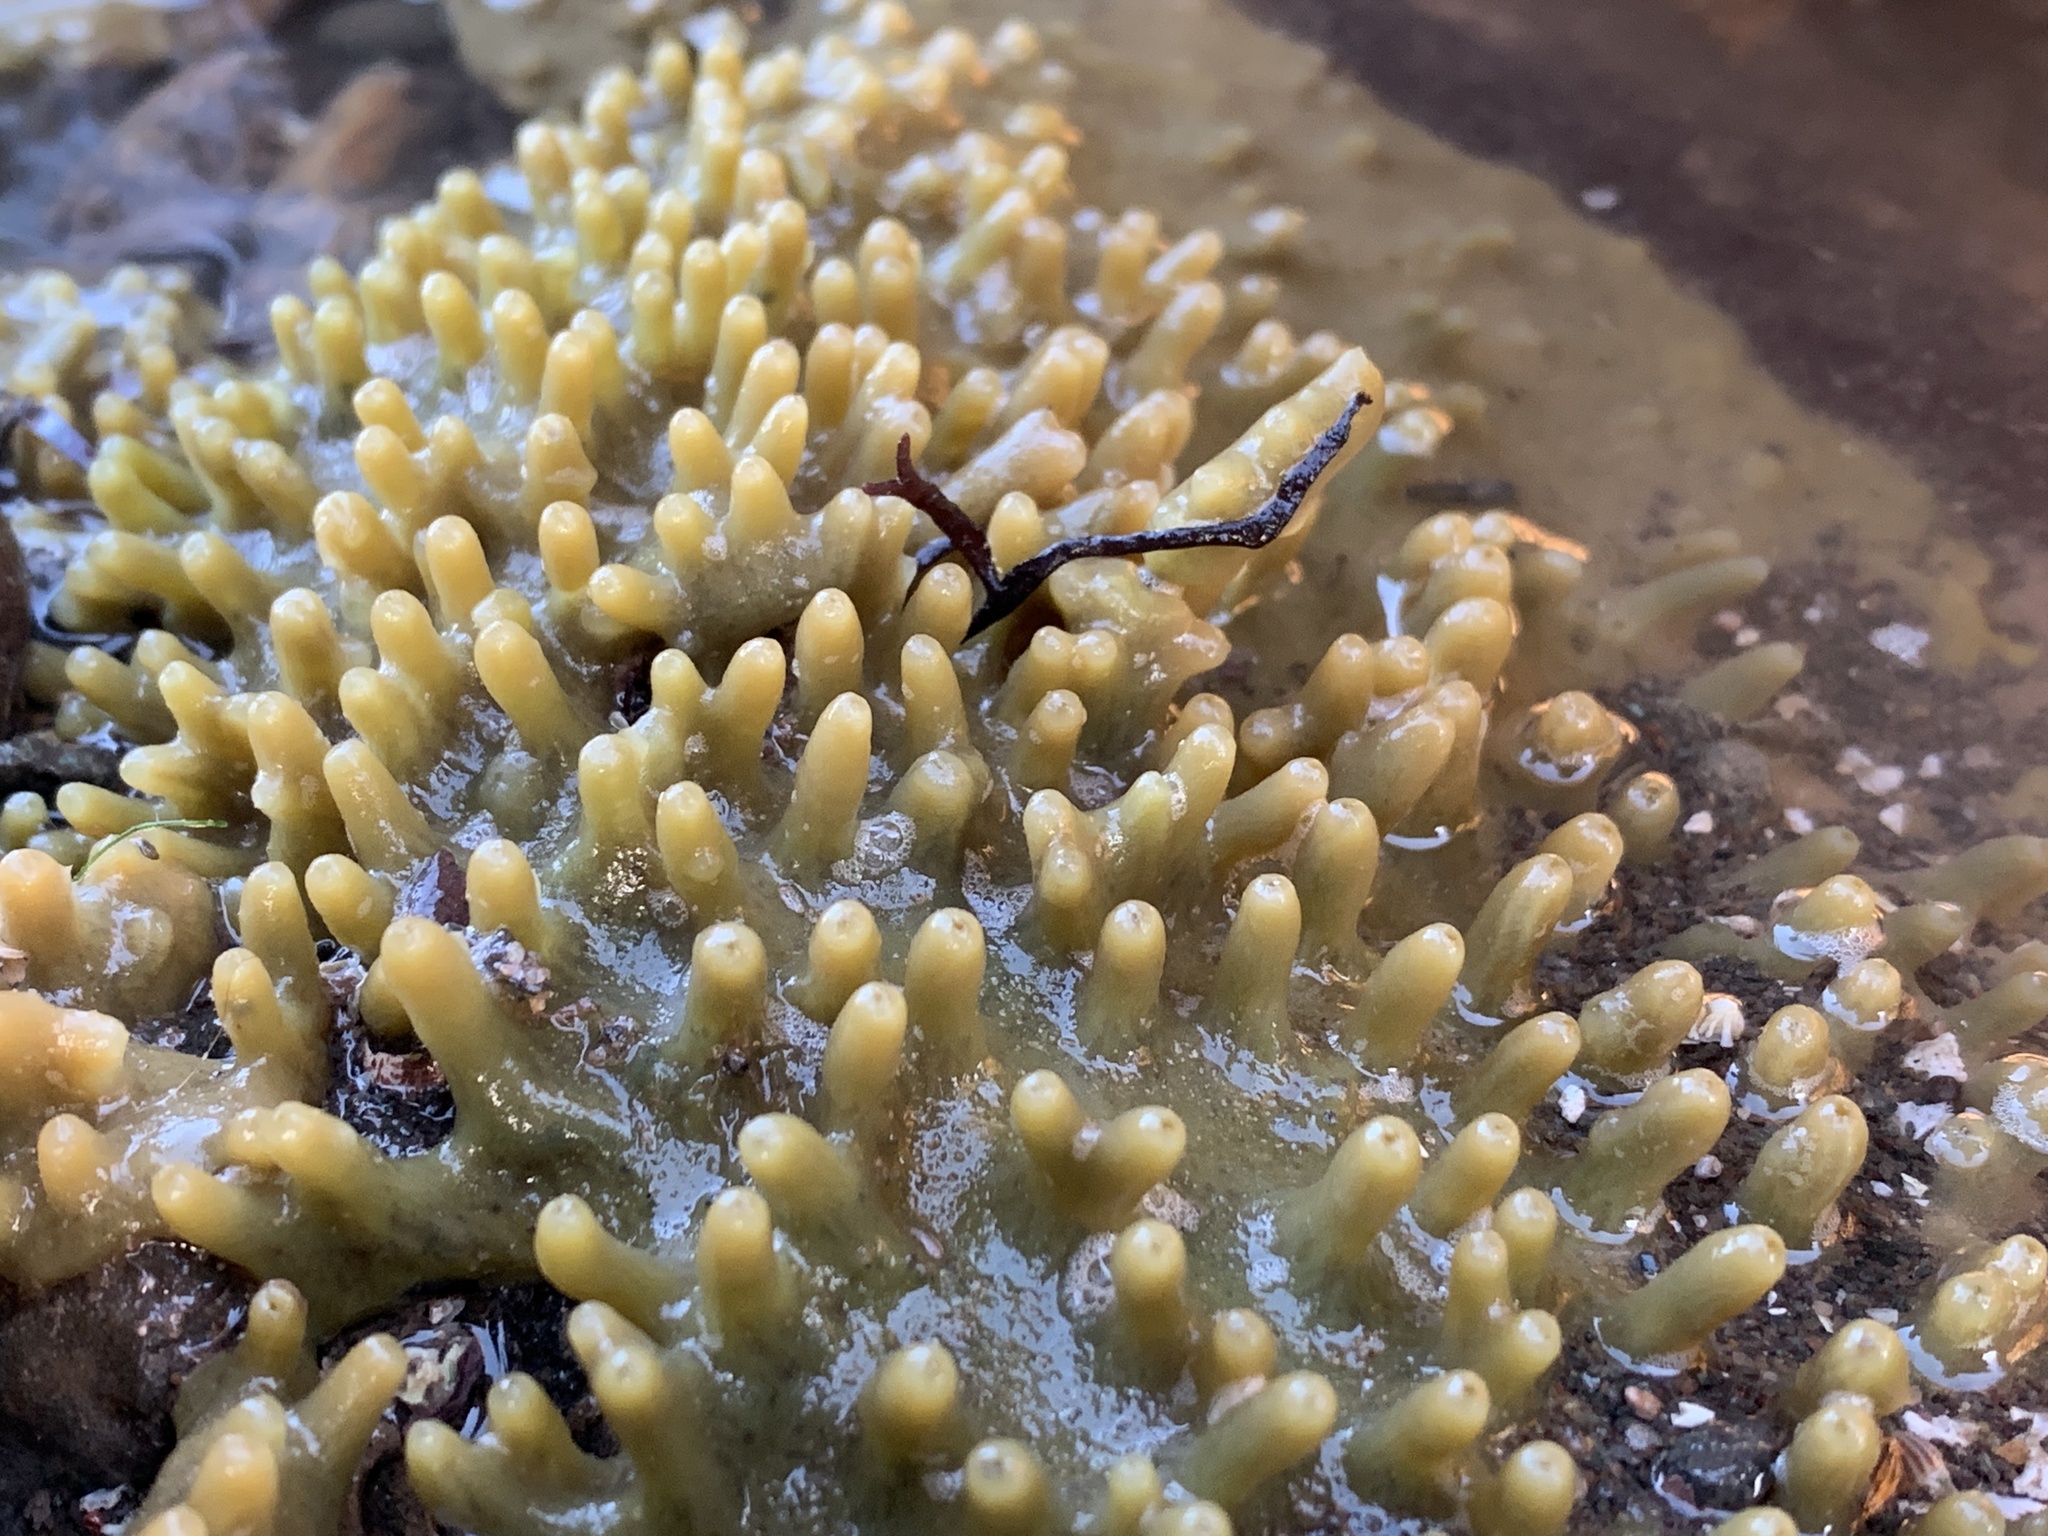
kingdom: Animalia
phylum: Porifera
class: Demospongiae
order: Suberitida
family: Halichondriidae
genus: Halichondria
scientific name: Halichondria panicea
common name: Breadcrumb sponge
